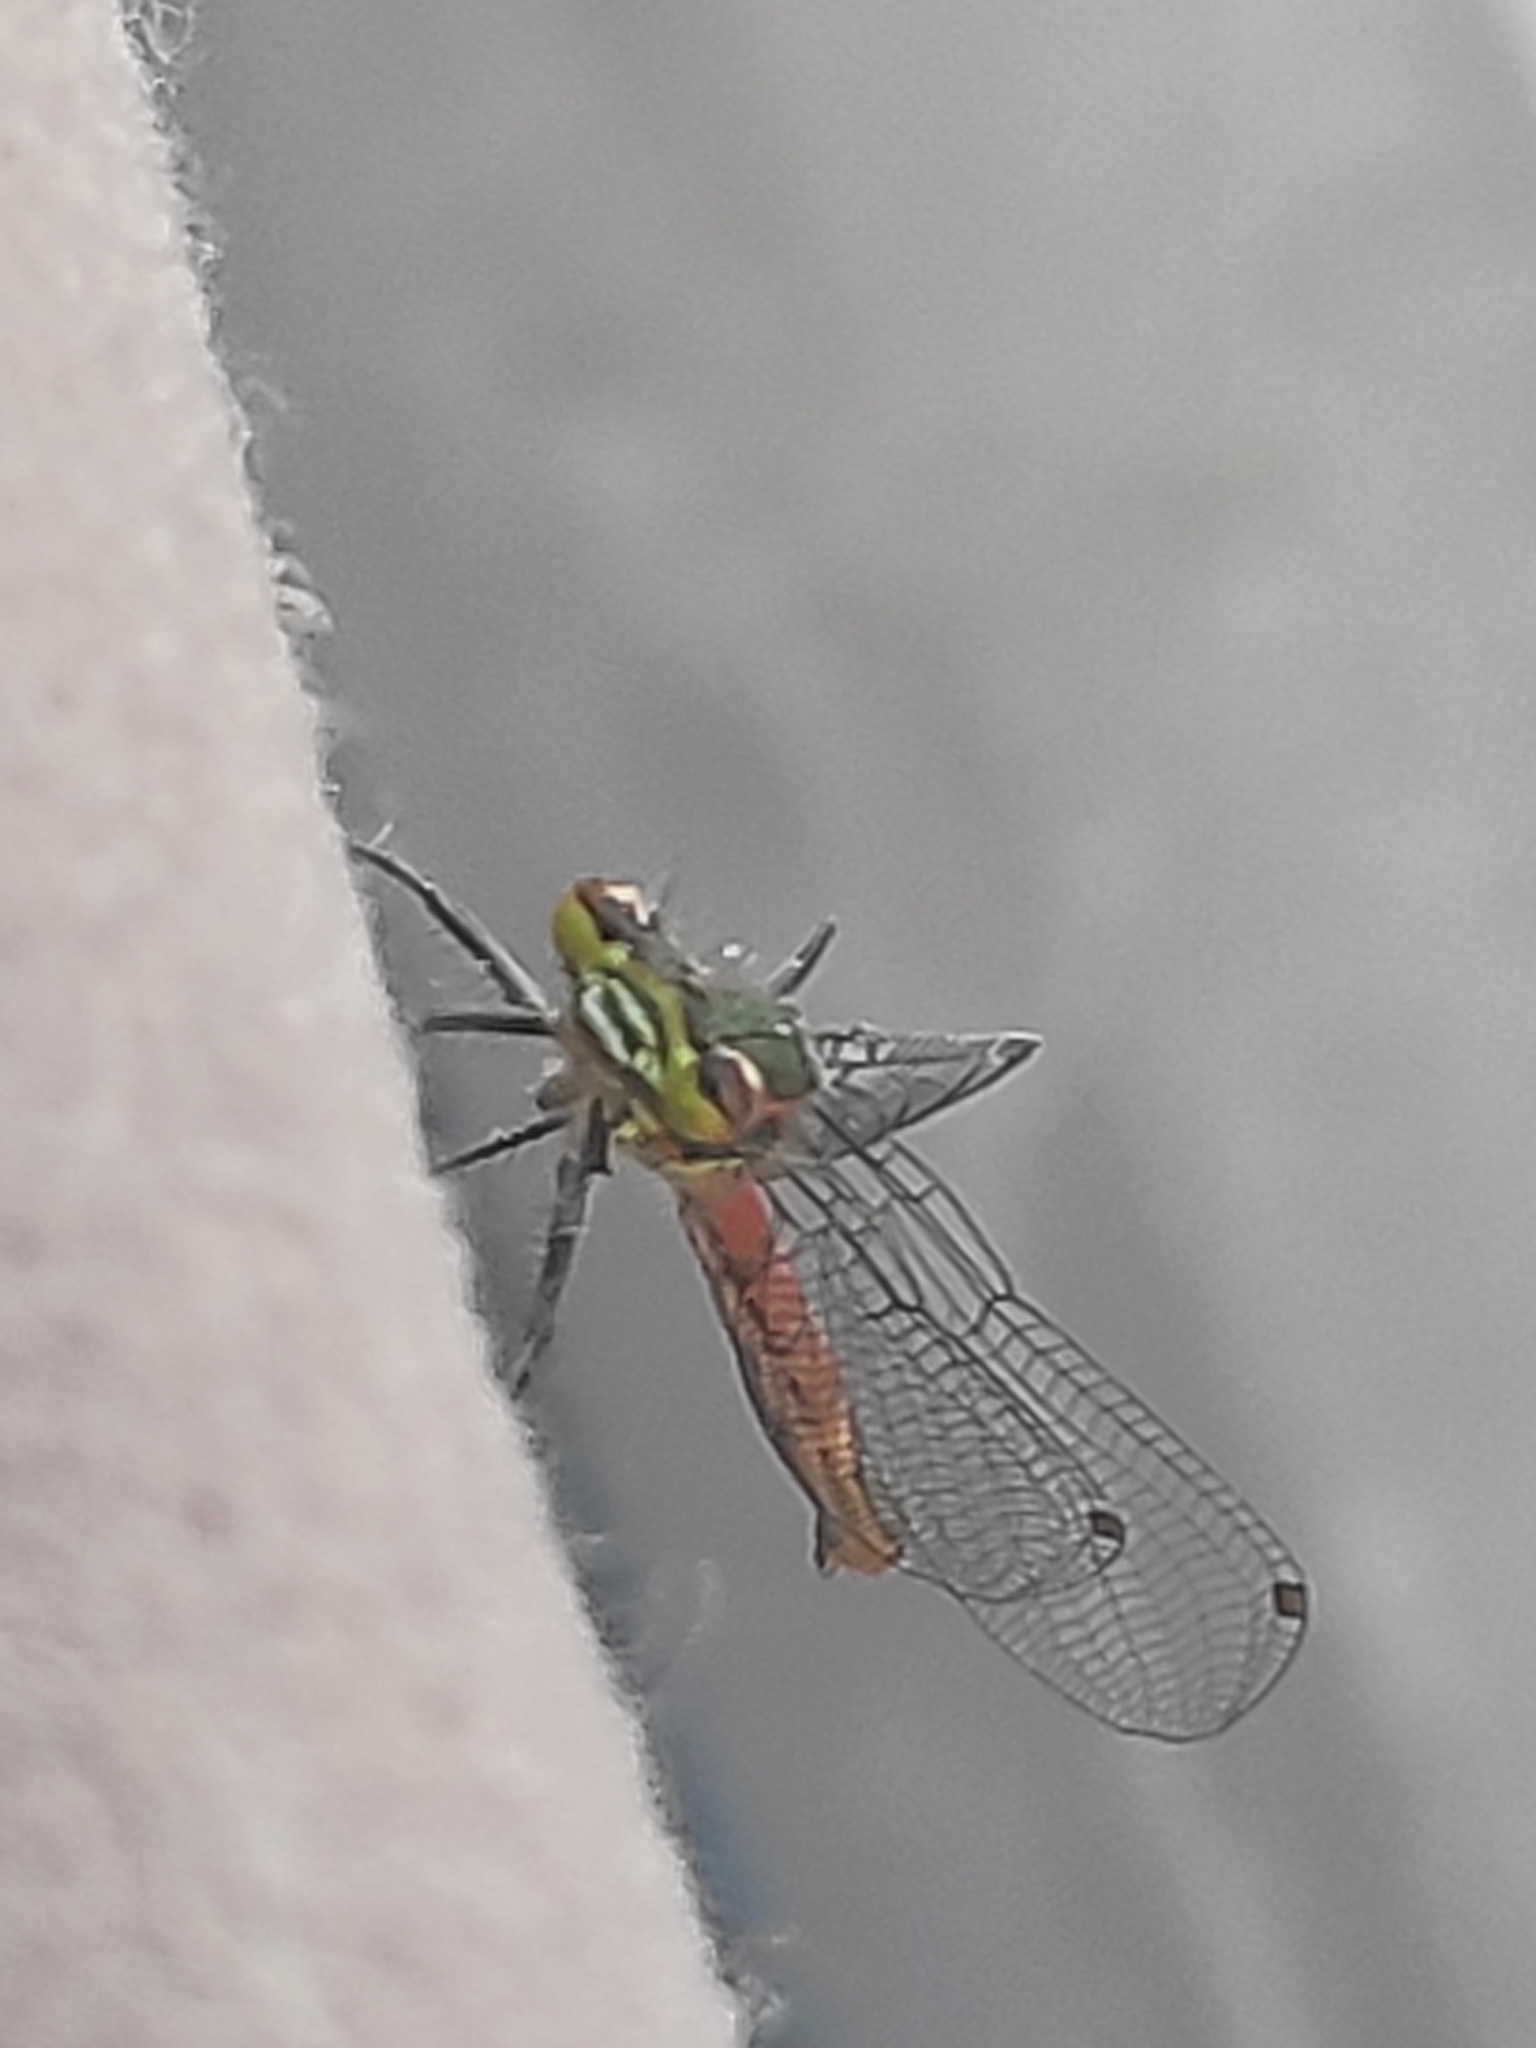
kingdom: Animalia
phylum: Arthropoda
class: Insecta
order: Odonata
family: Coenagrionidae
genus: Pyrrhosoma
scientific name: Pyrrhosoma nymphula
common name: Large red damsel
